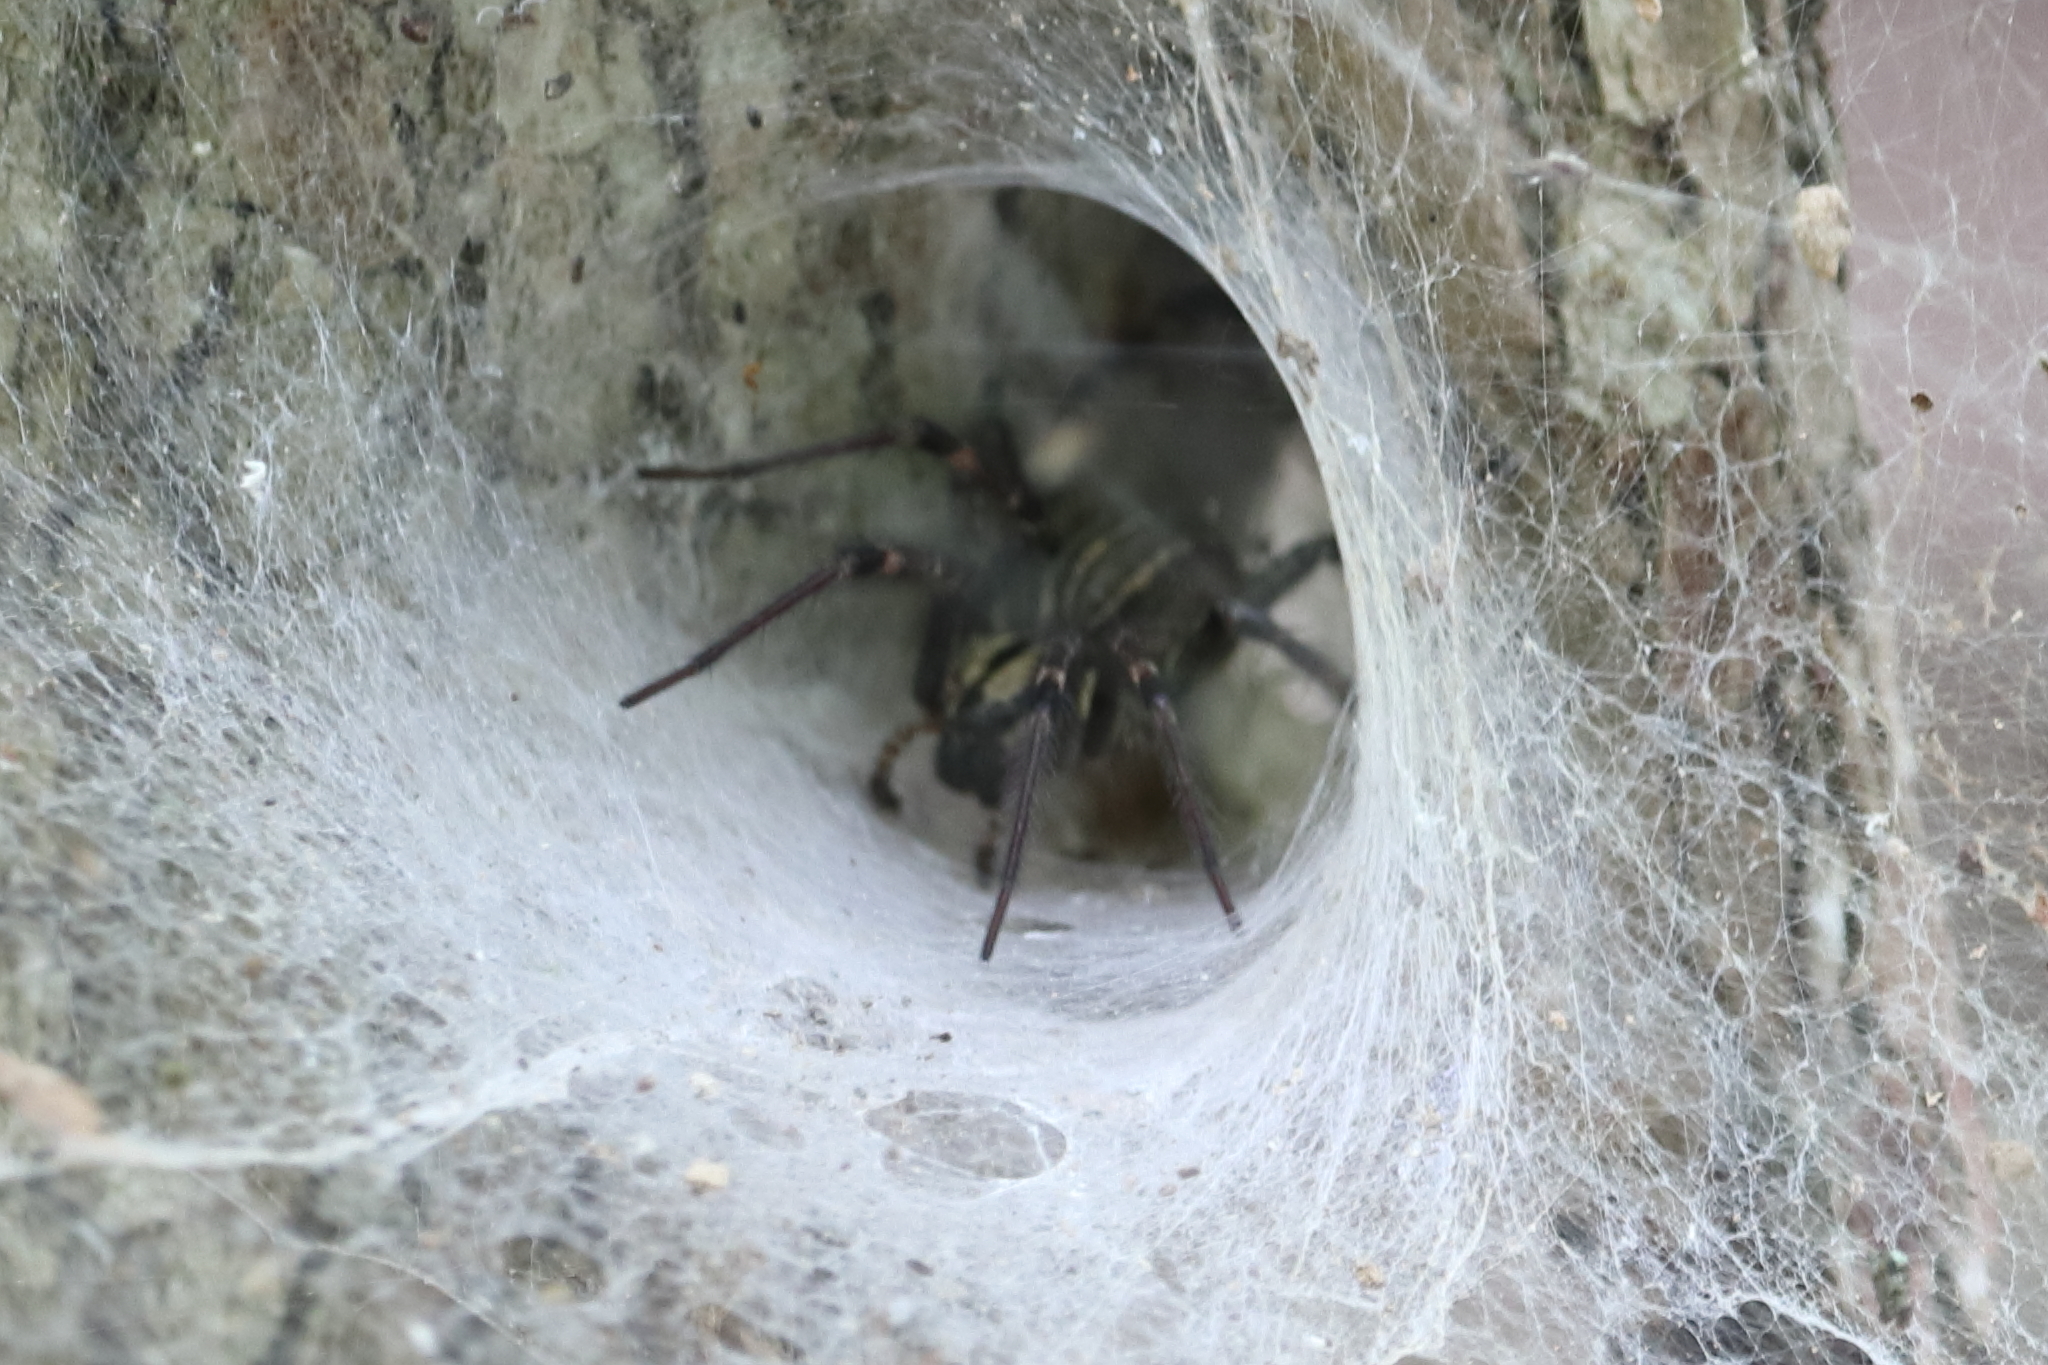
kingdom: Animalia
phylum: Arthropoda
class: Arachnida
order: Araneae
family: Agelenidae
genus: Agelenopsis
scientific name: Agelenopsis
